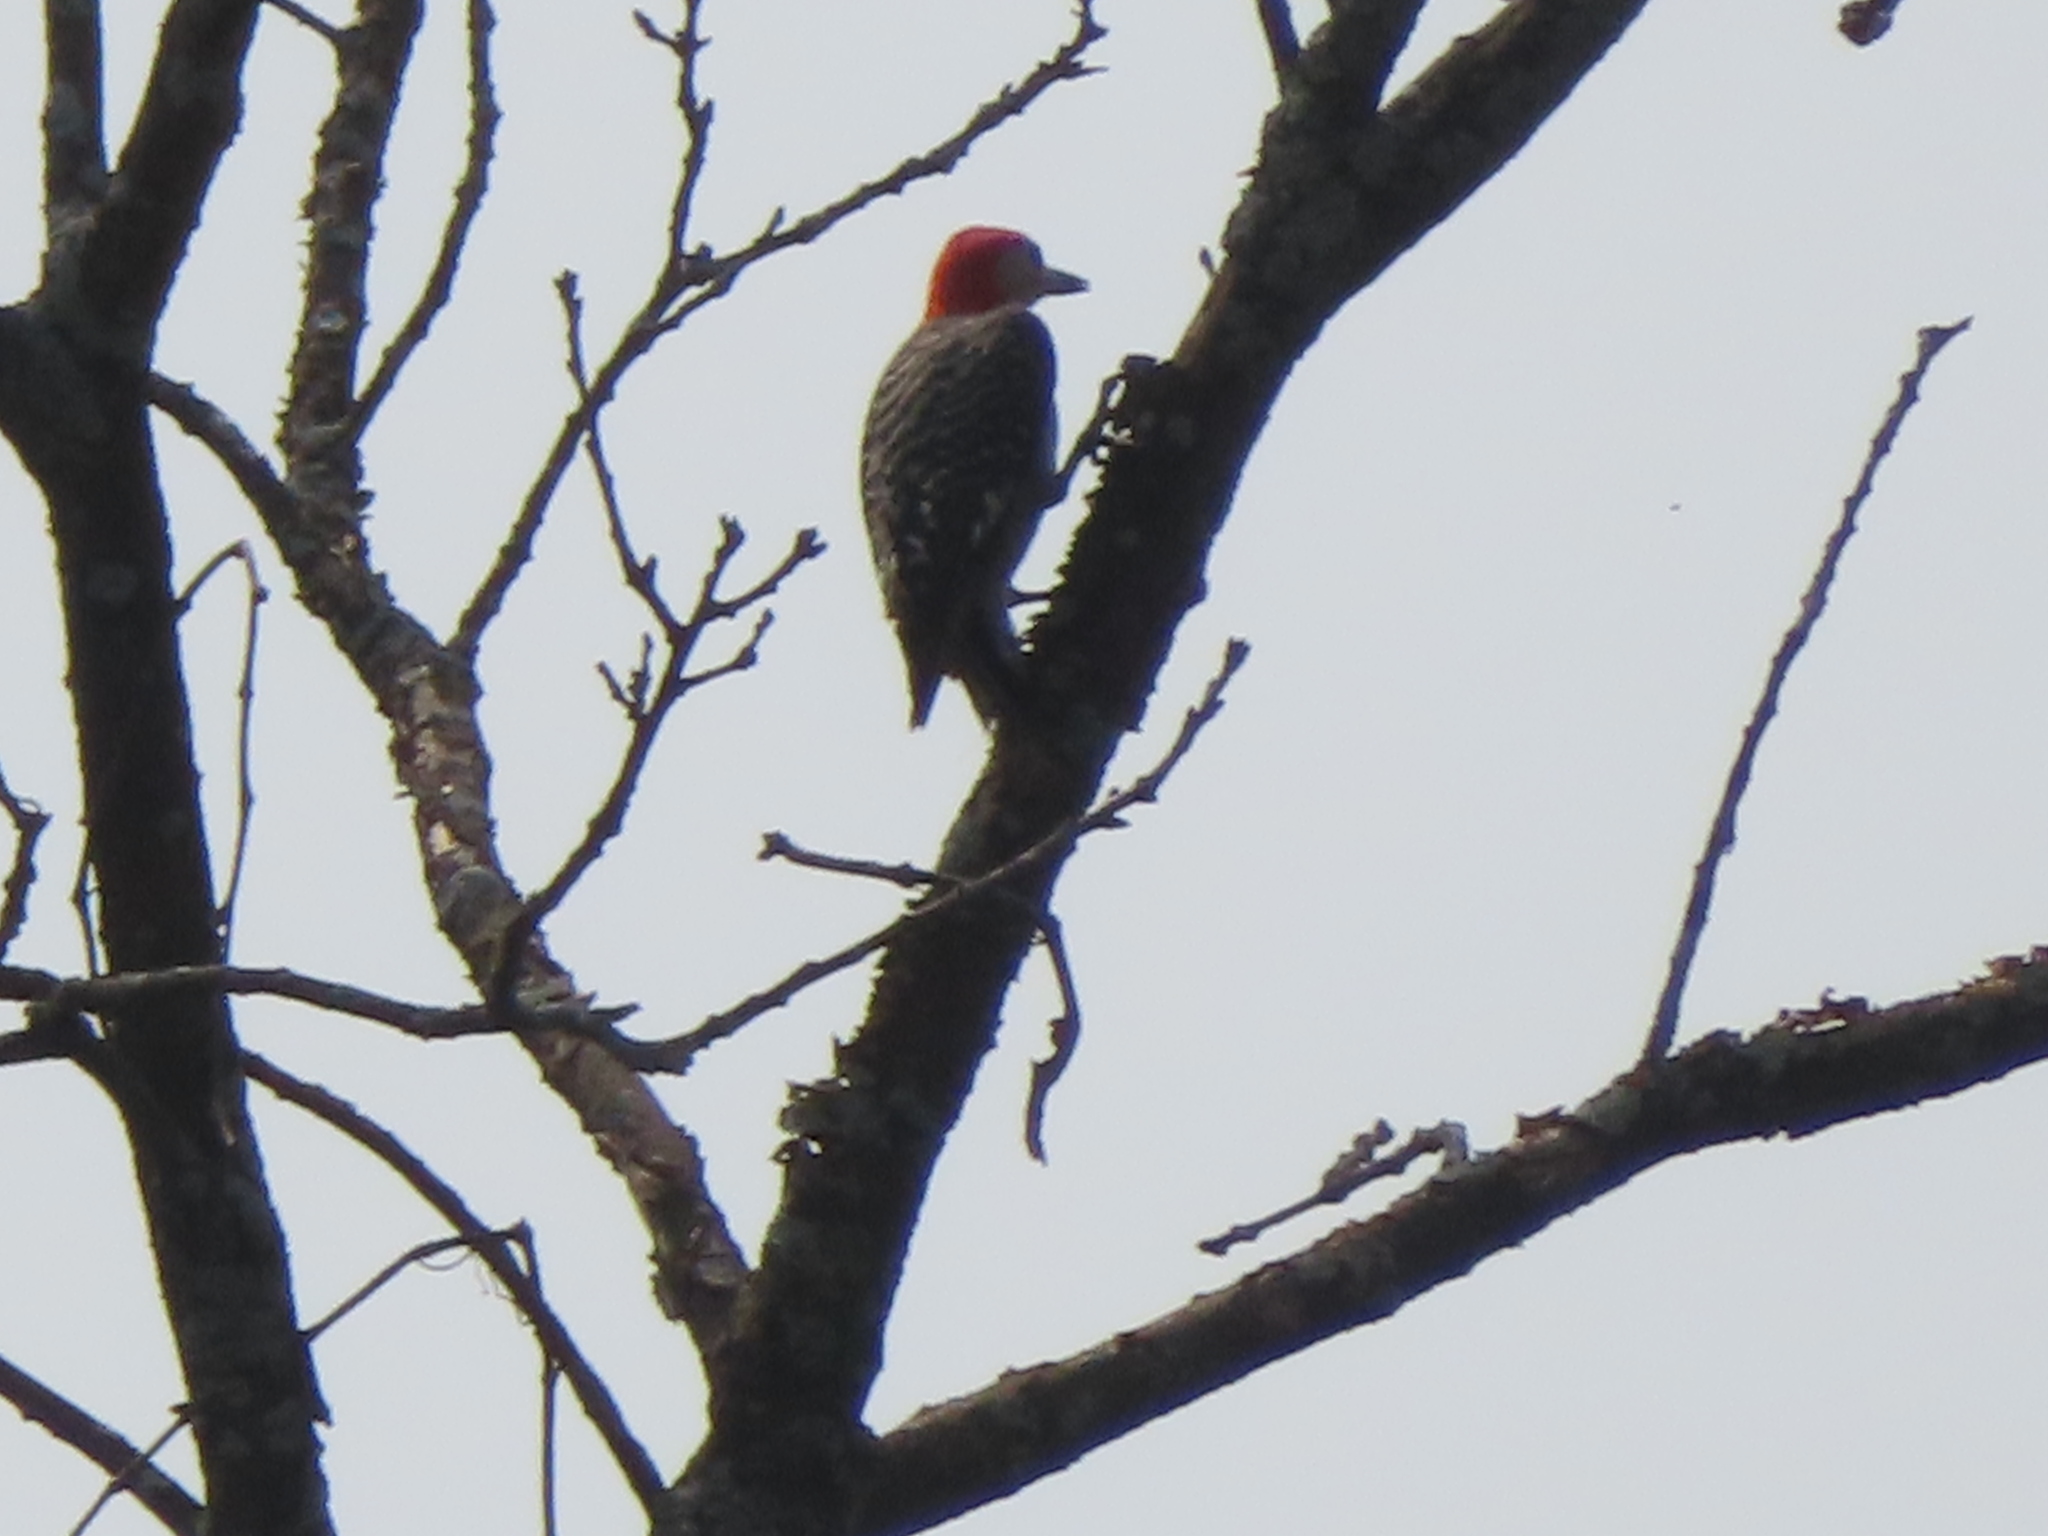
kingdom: Animalia
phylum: Chordata
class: Aves
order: Piciformes
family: Picidae
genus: Melanerpes
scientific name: Melanerpes carolinus
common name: Red-bellied woodpecker
